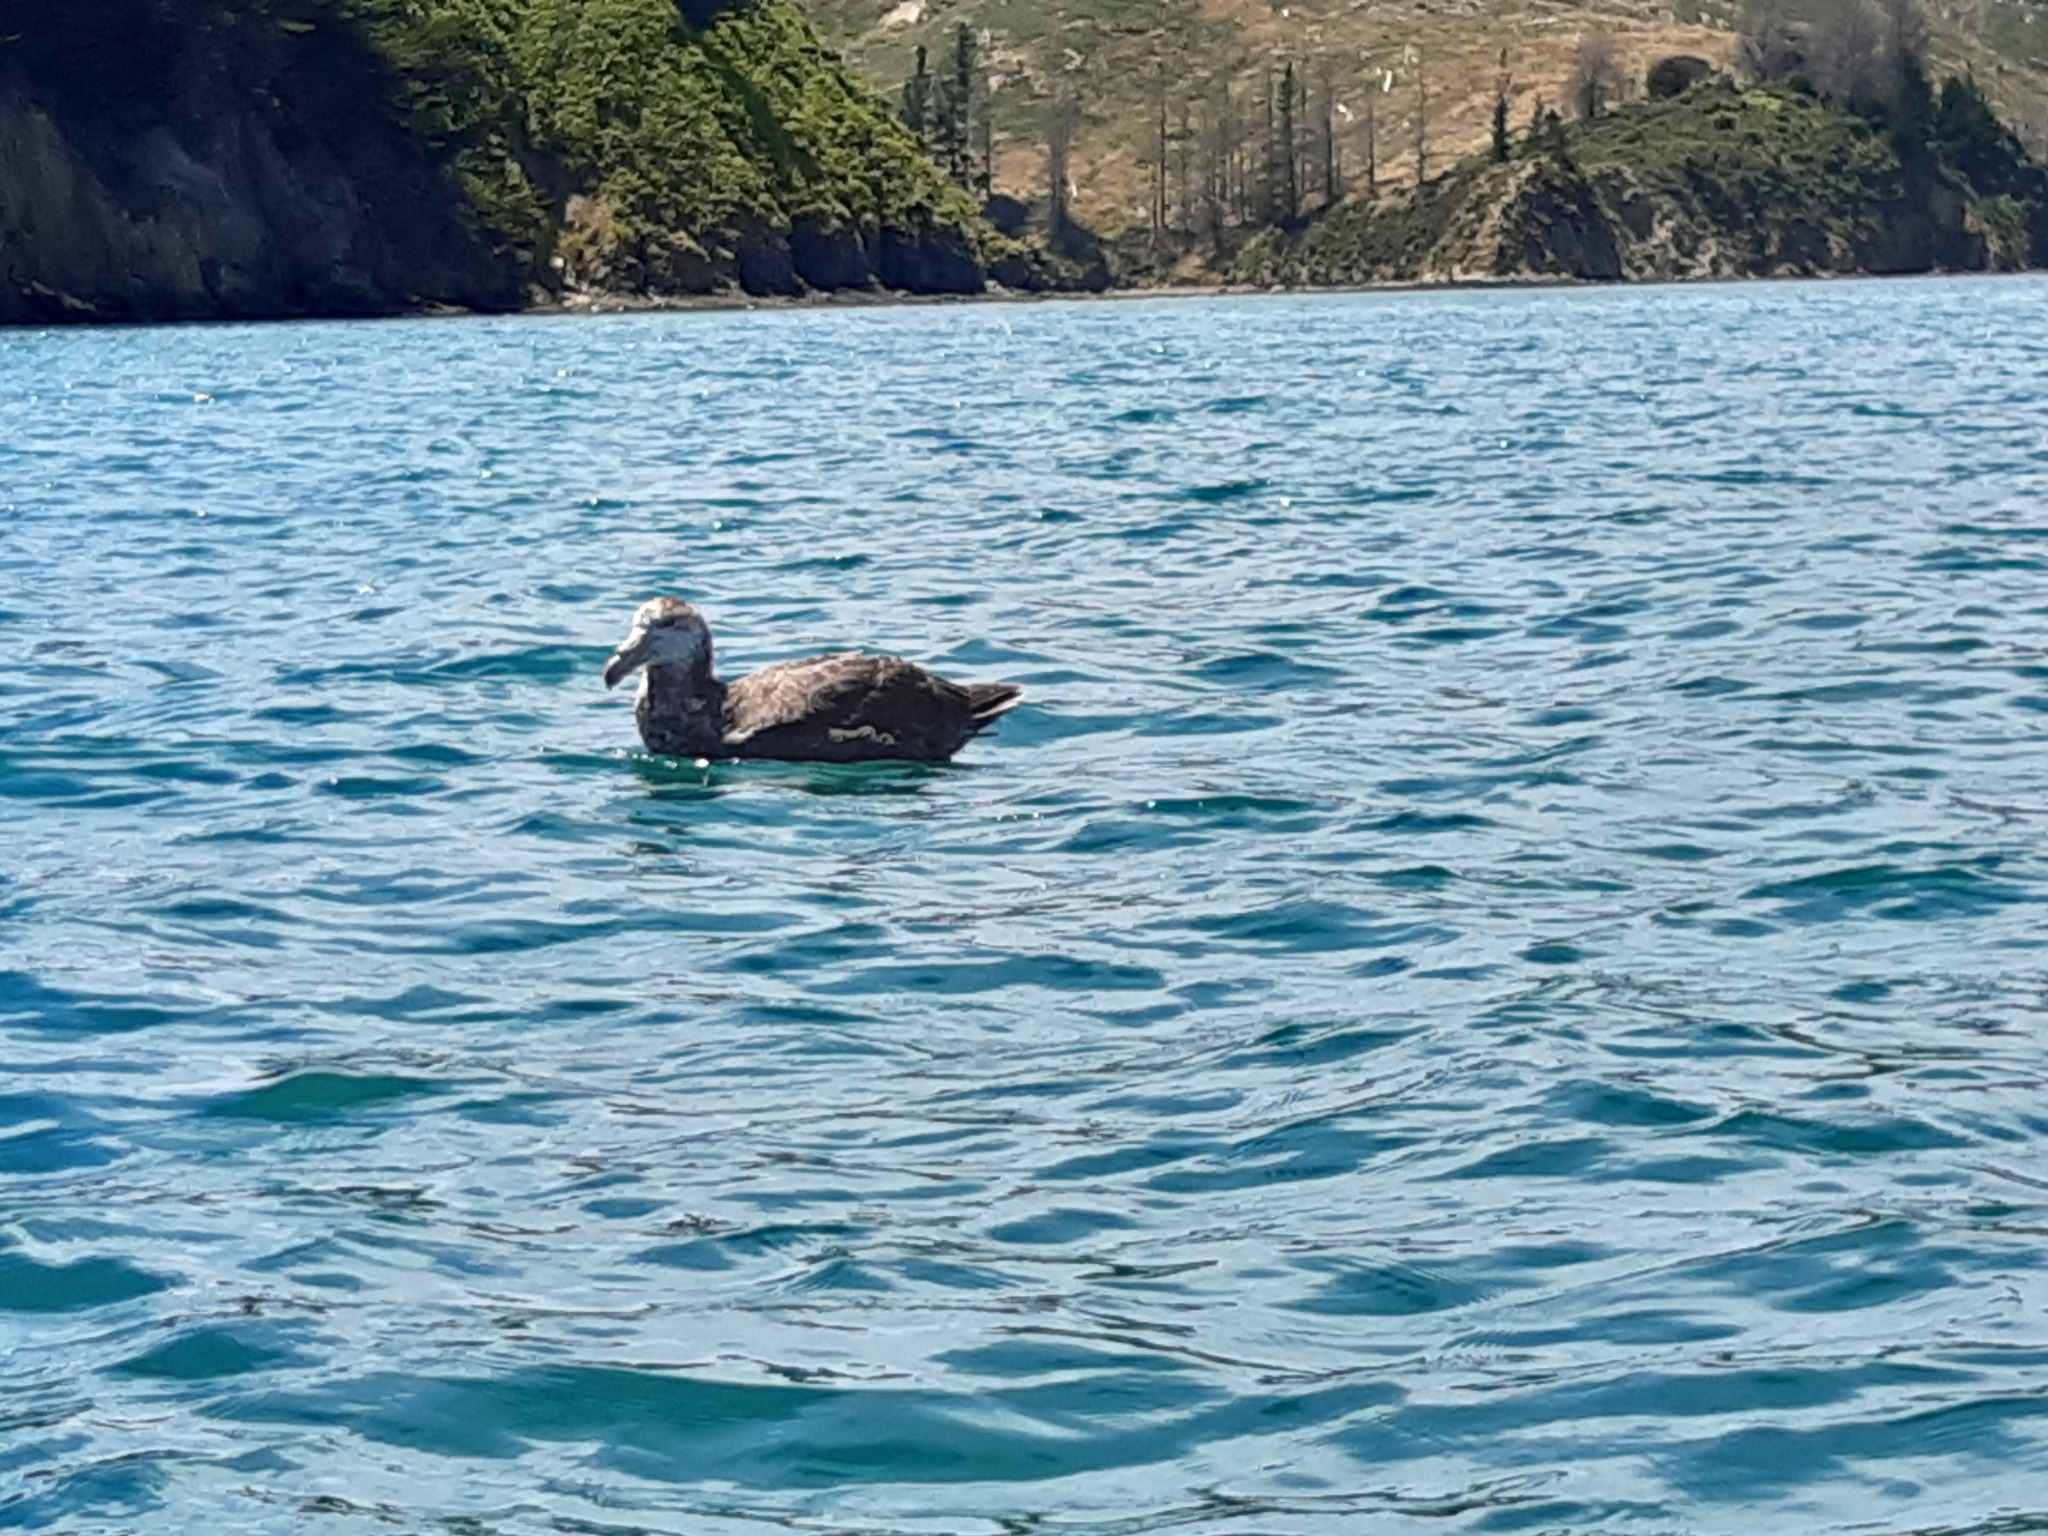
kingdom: Animalia
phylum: Chordata
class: Aves
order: Procellariiformes
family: Procellariidae
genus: Macronectes
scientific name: Macronectes halli
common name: Northern giant petrel
